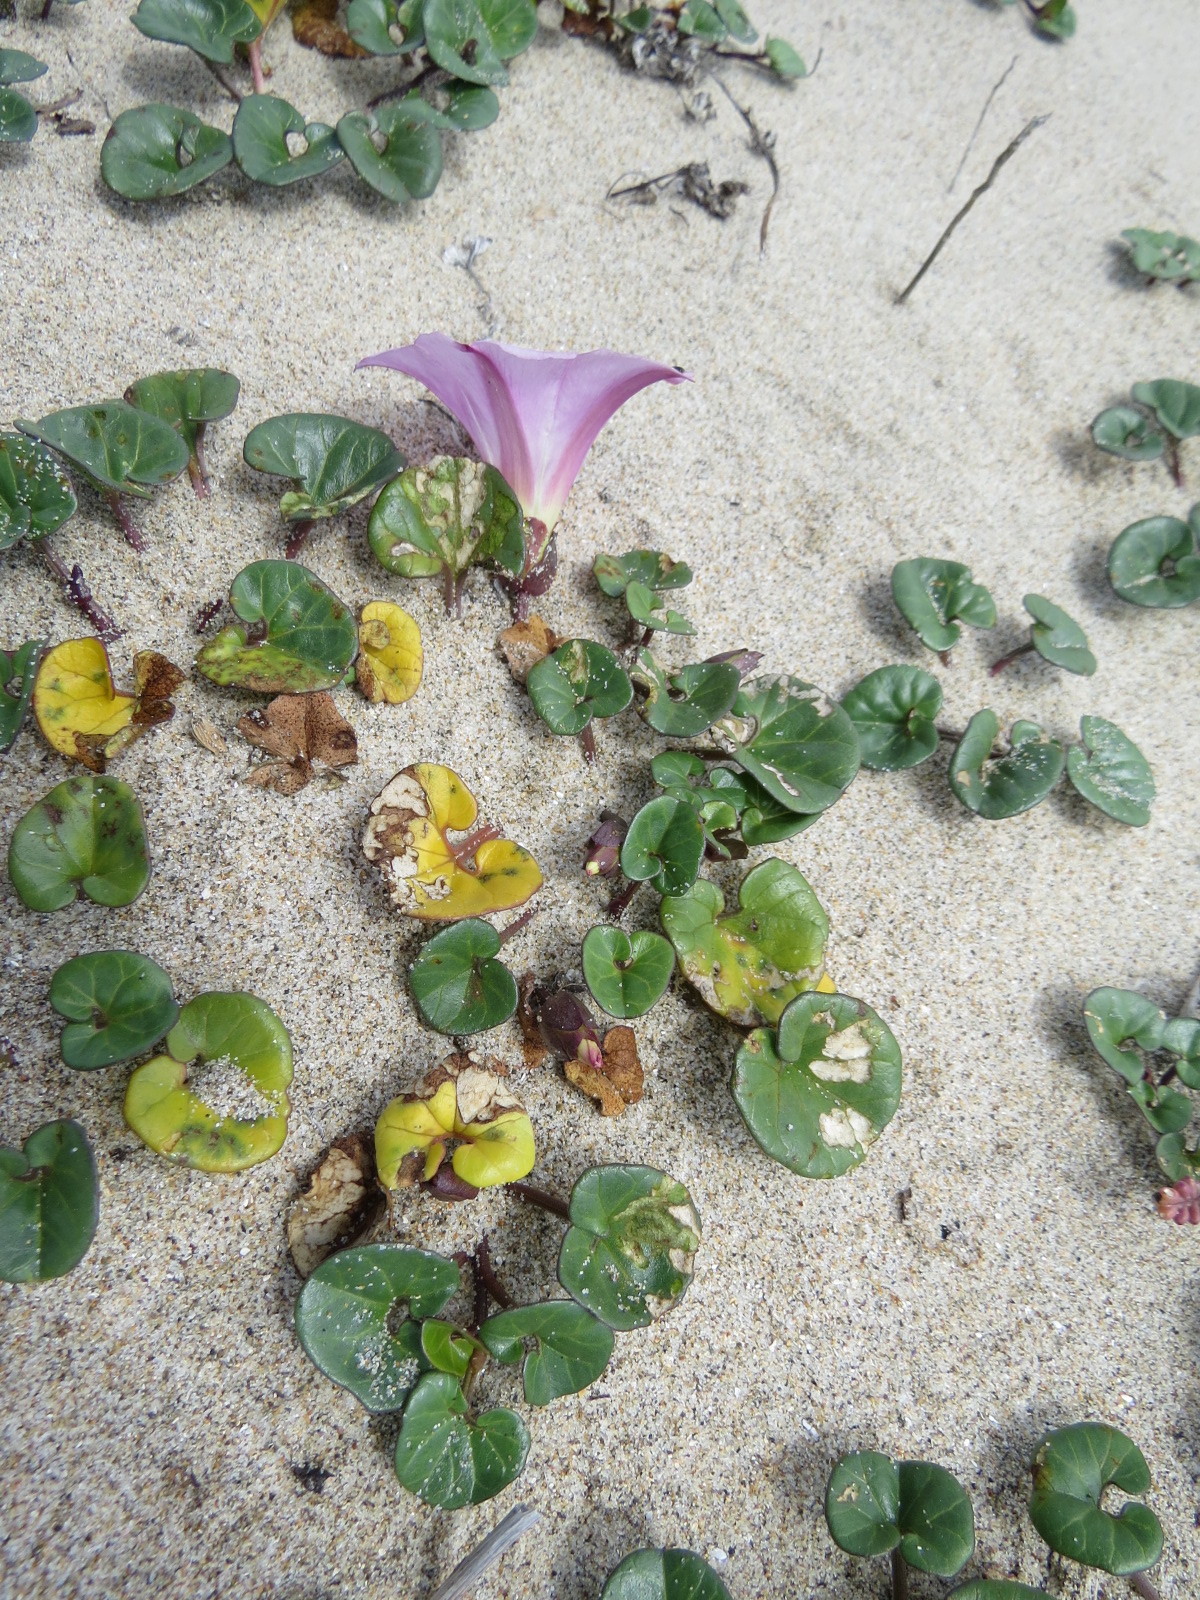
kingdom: Plantae
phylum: Tracheophyta
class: Magnoliopsida
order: Solanales
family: Convolvulaceae
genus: Calystegia
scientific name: Calystegia soldanella
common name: Sea bindweed
